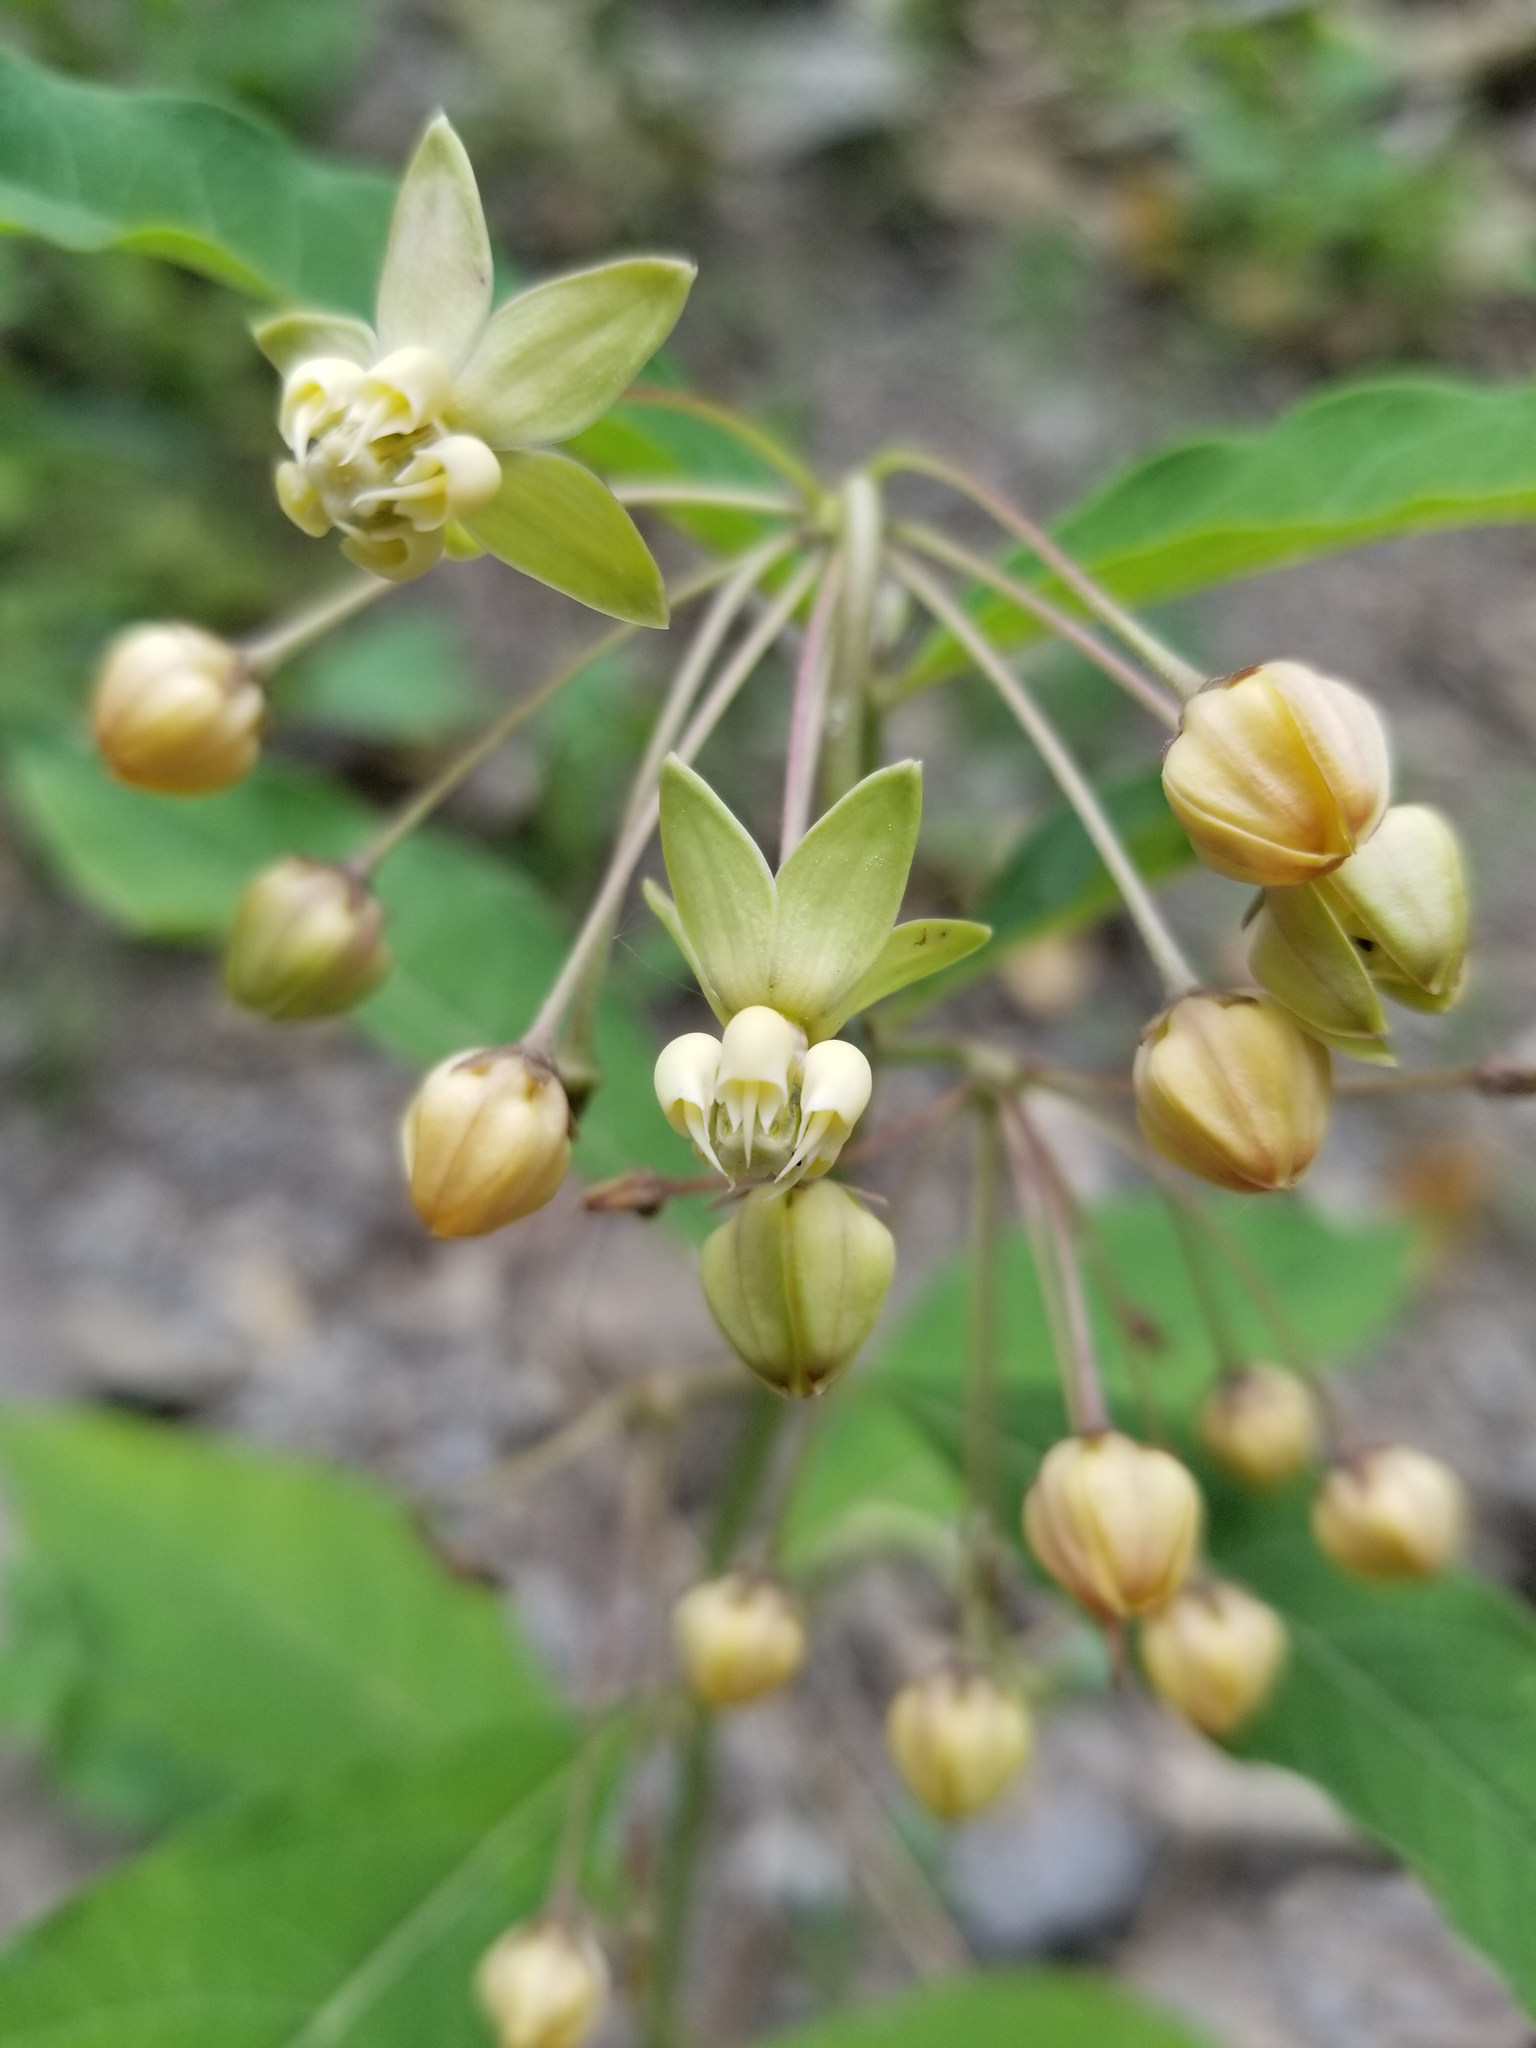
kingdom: Plantae
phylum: Tracheophyta
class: Magnoliopsida
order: Gentianales
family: Apocynaceae
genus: Asclepias
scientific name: Asclepias exaltata
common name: Poke milkweed
